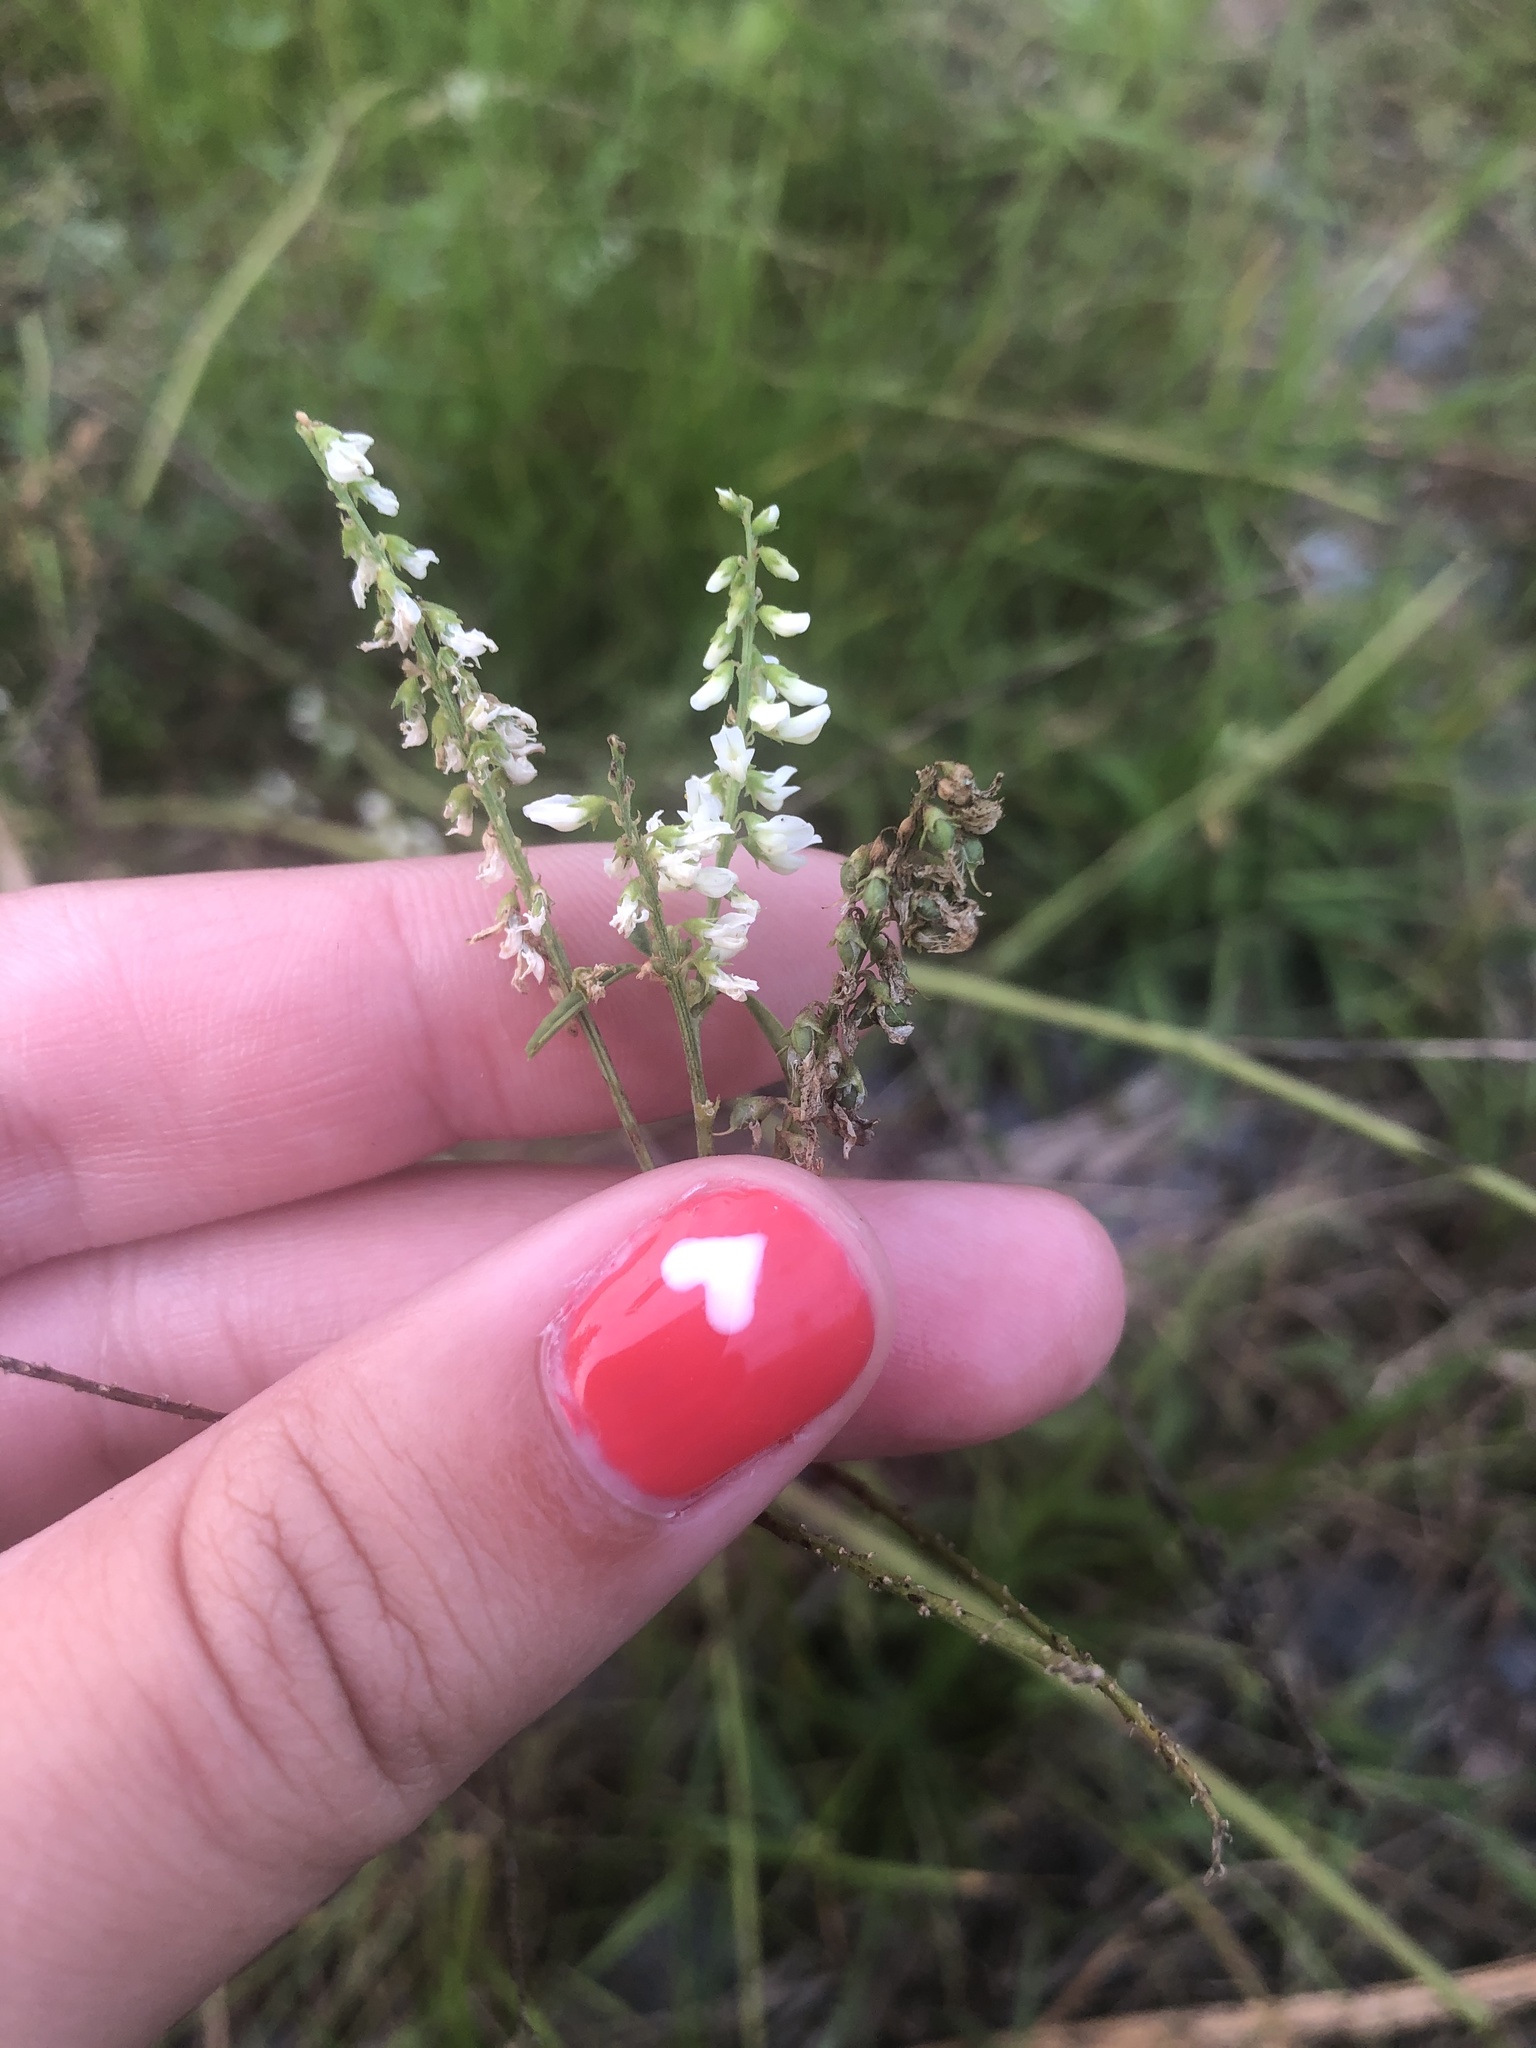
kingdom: Plantae
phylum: Tracheophyta
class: Magnoliopsida
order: Fabales
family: Fabaceae
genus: Melilotus
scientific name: Melilotus albus
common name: White melilot
